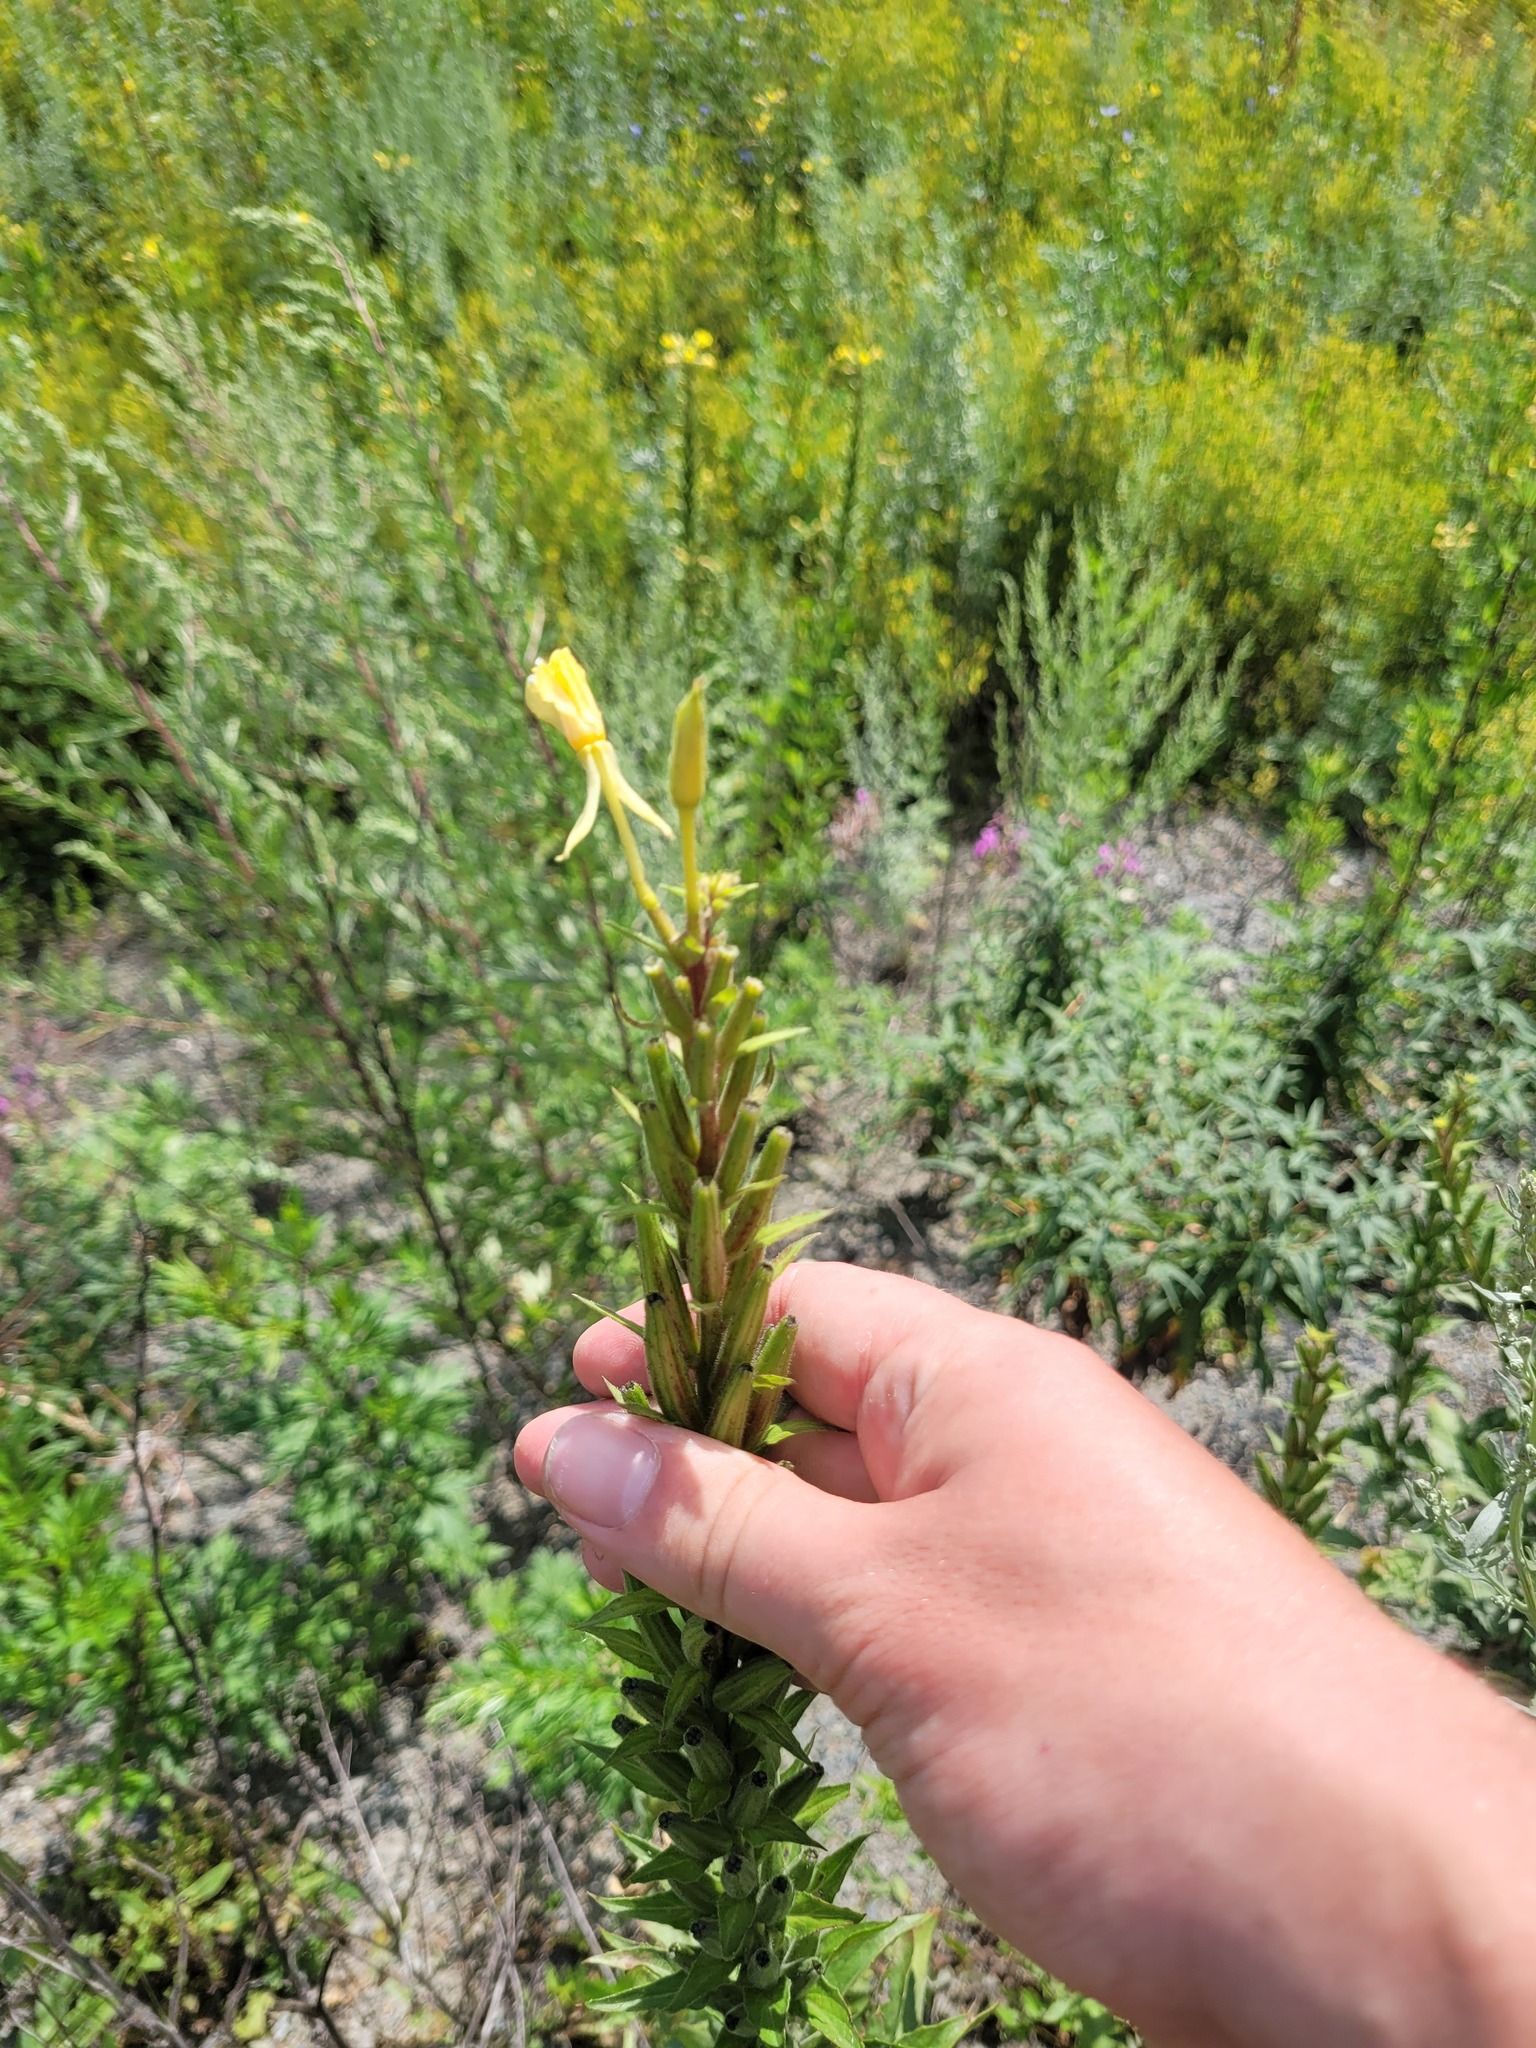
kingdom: Plantae
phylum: Tracheophyta
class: Magnoliopsida
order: Myrtales
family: Onagraceae
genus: Oenothera
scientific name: Oenothera rubricaulis
